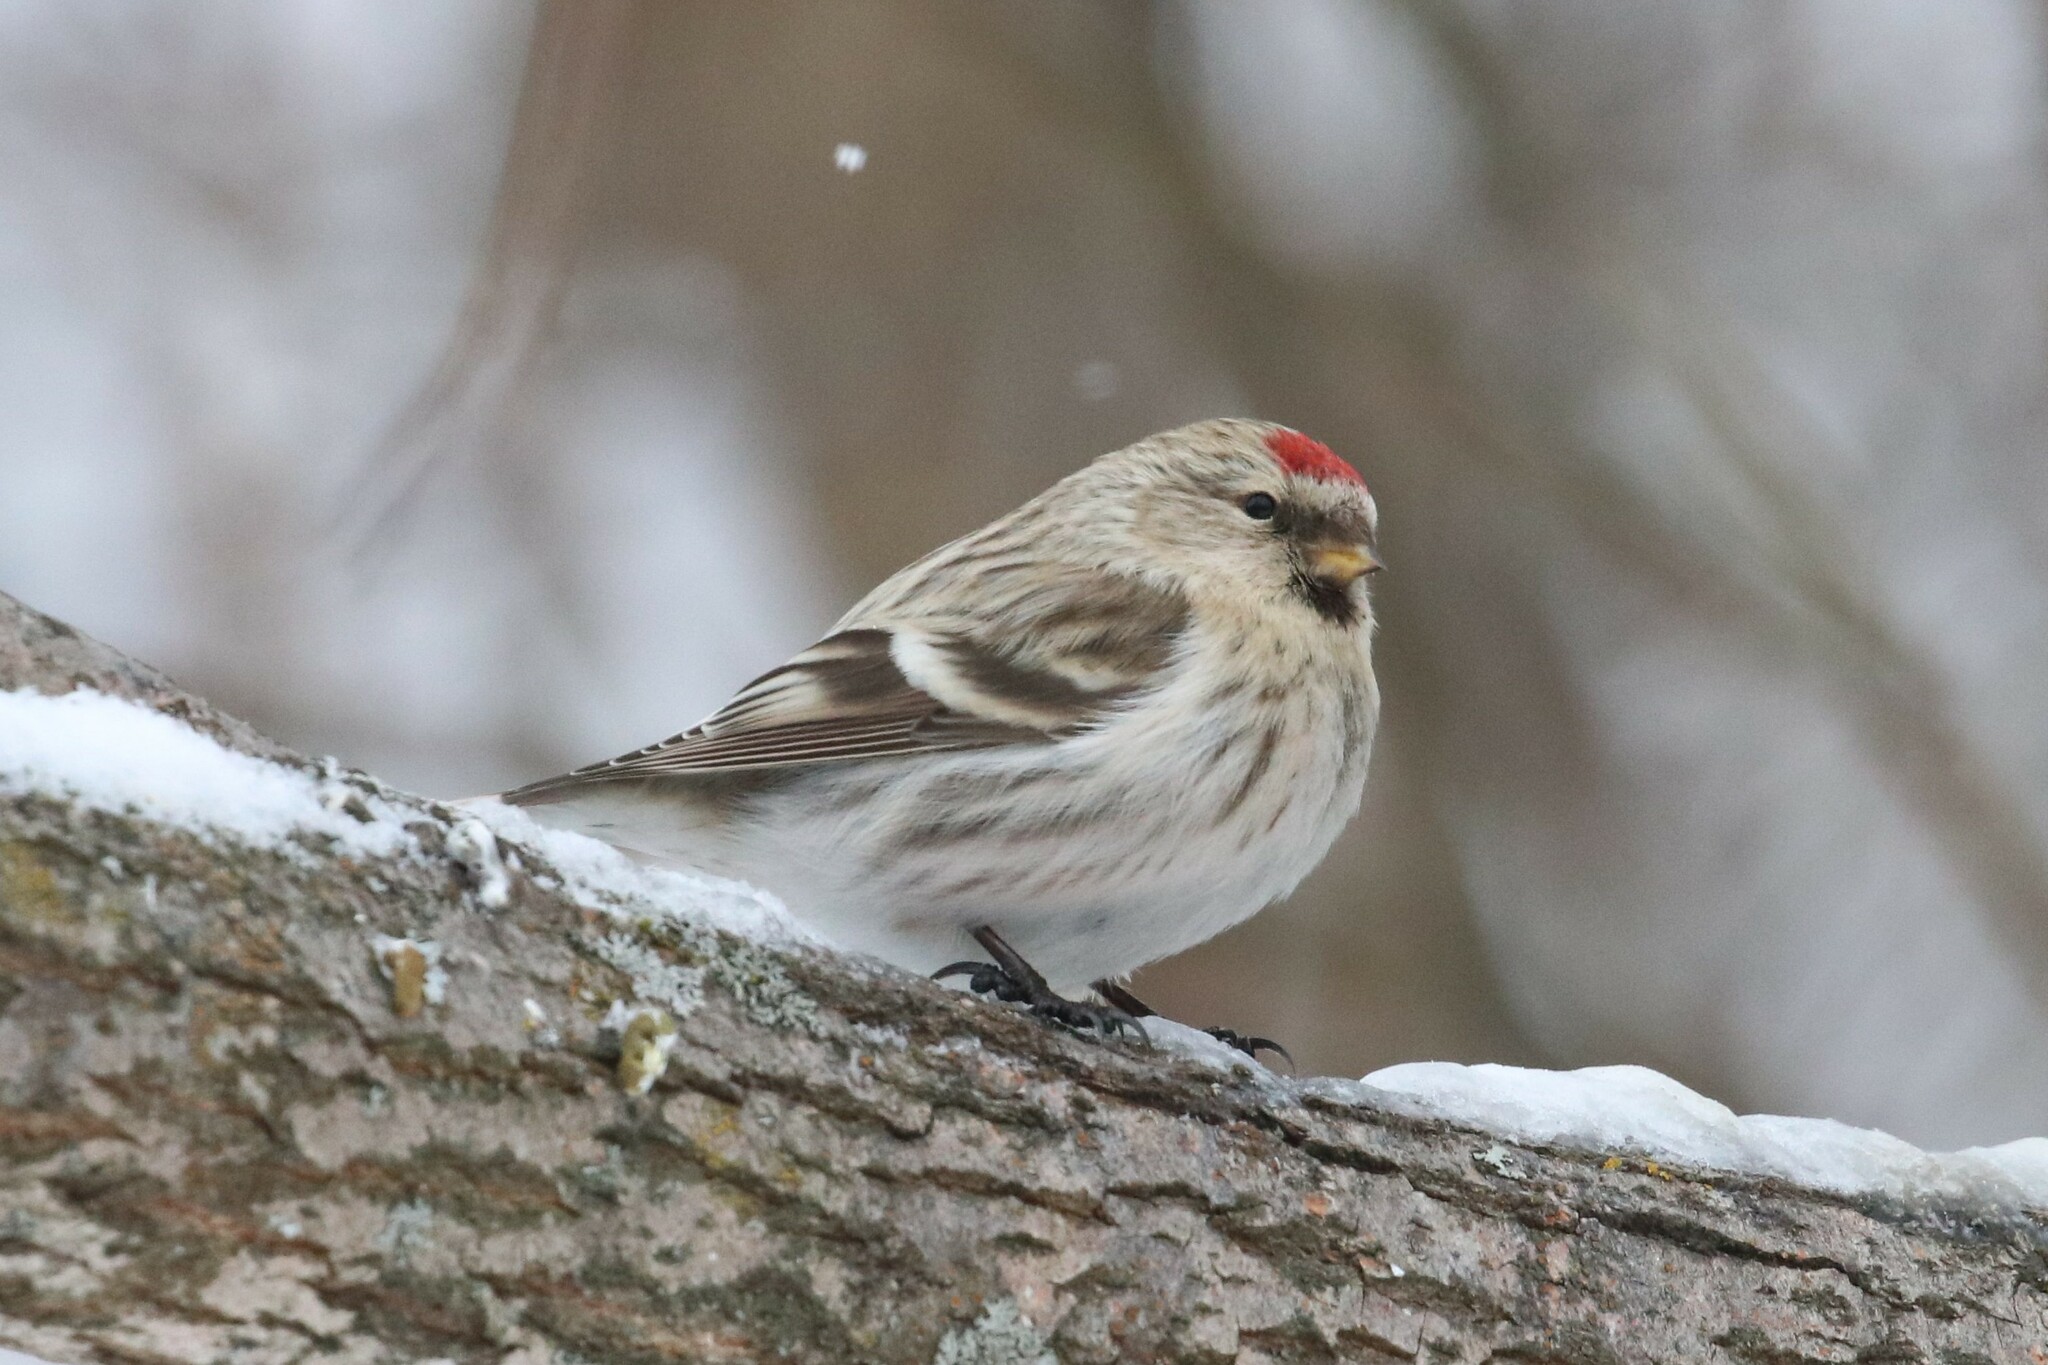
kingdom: Animalia
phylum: Chordata
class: Aves
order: Passeriformes
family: Fringillidae
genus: Acanthis
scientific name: Acanthis flammea
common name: Common redpoll
